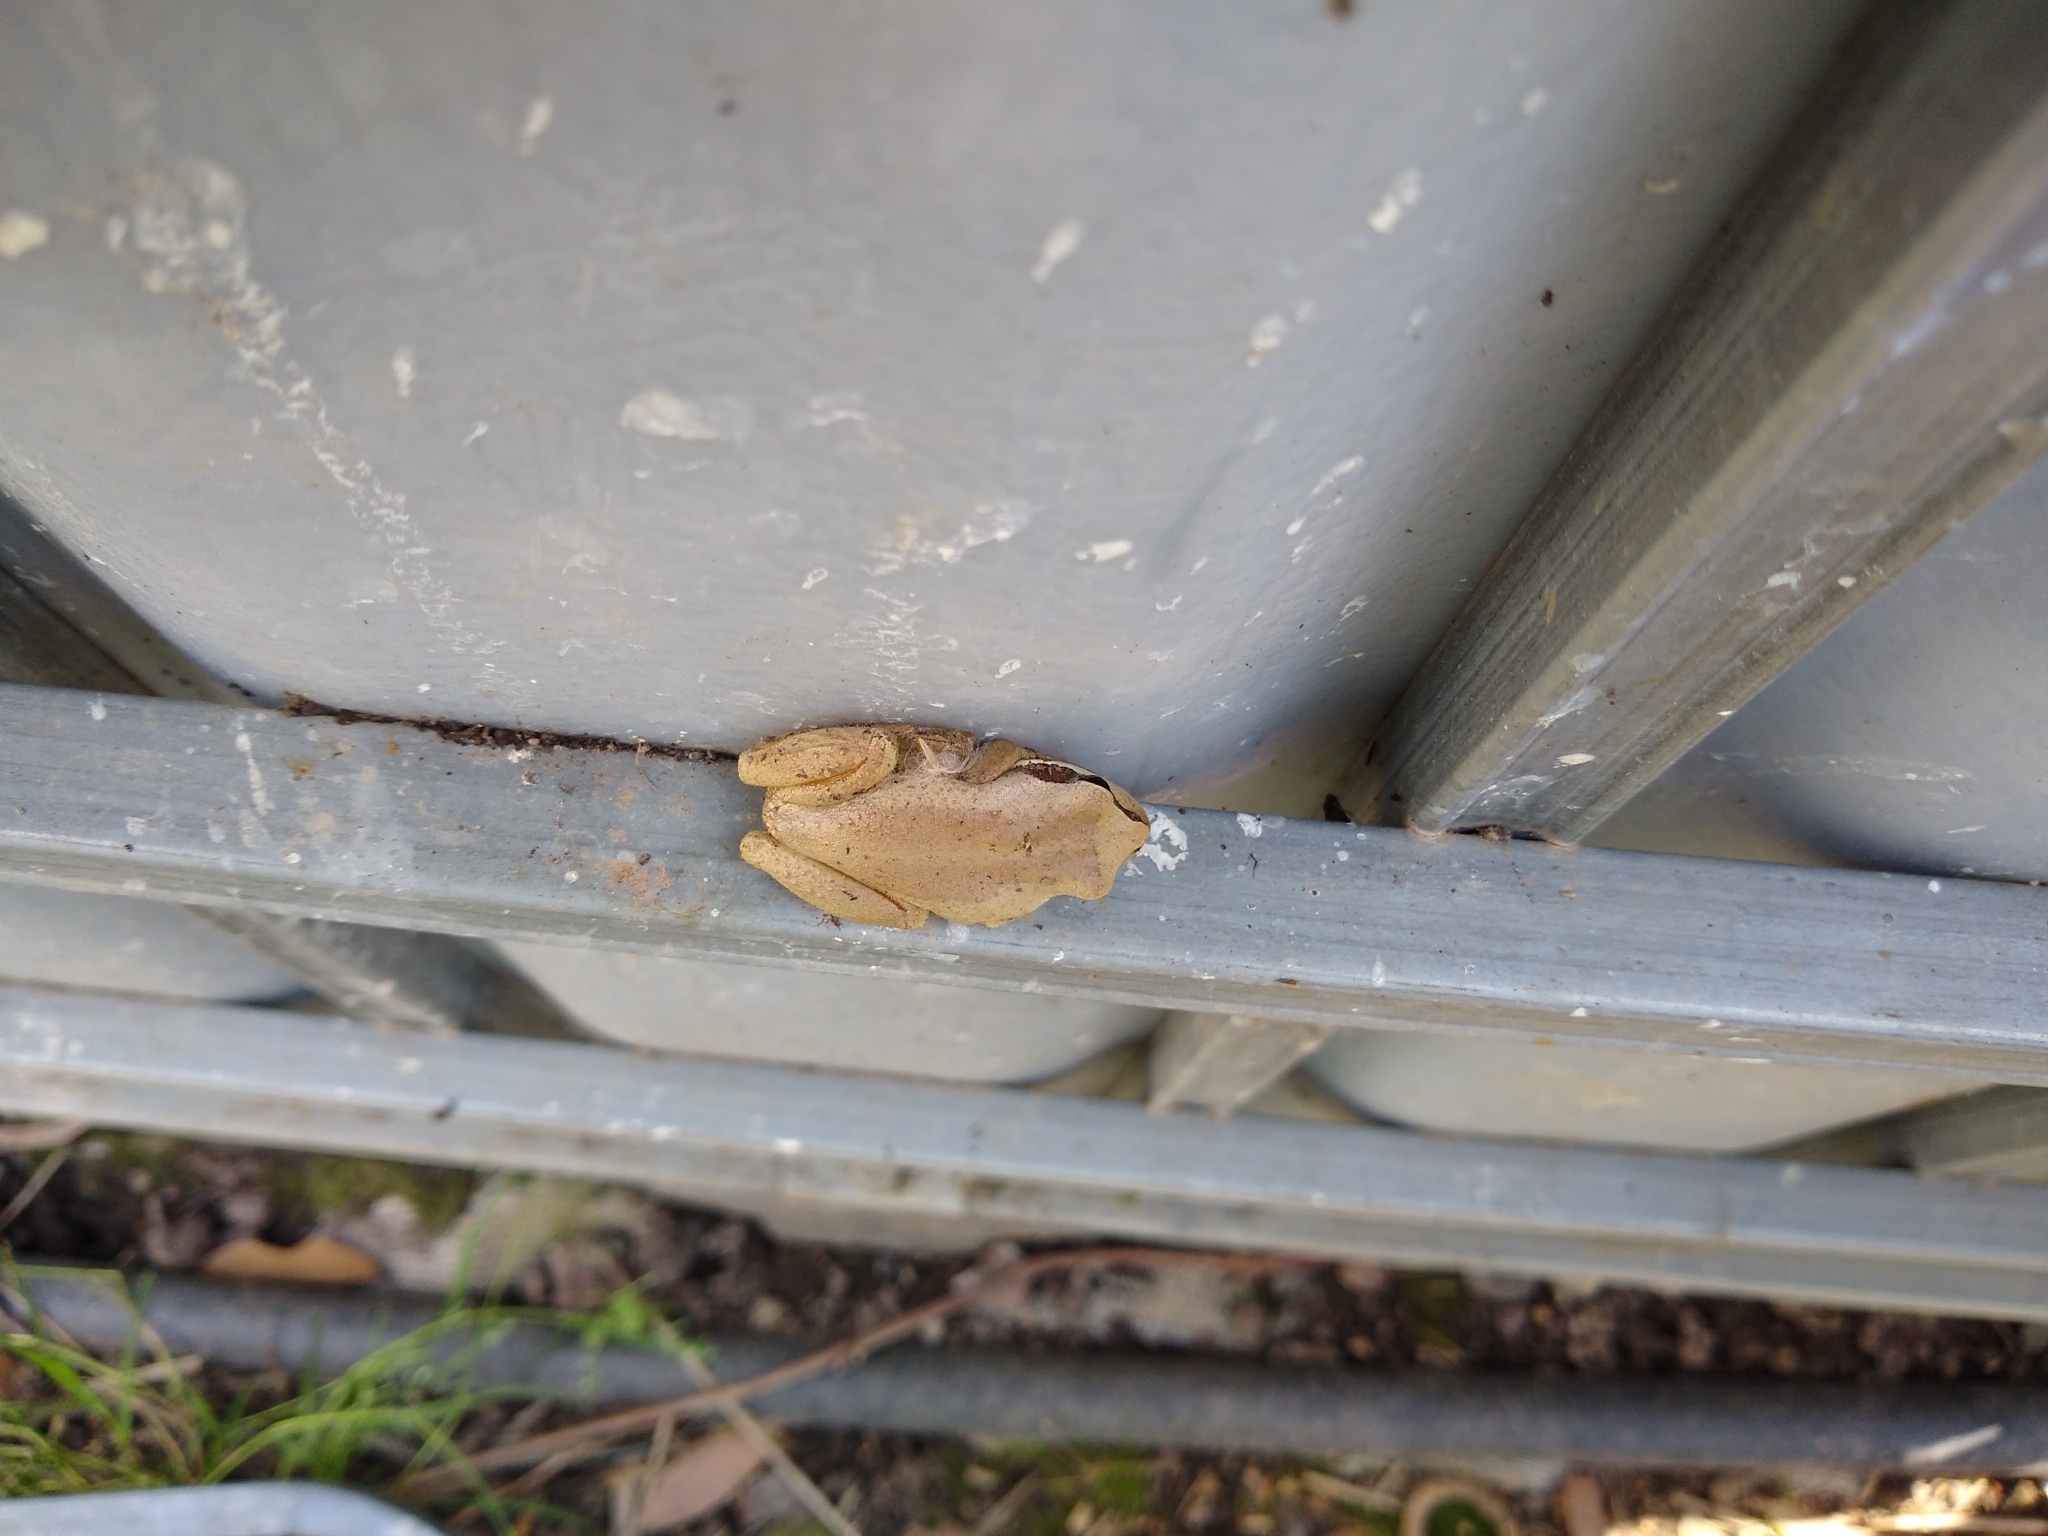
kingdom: Animalia
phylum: Chordata
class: Amphibia
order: Anura
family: Pelodryadidae
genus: Litoria
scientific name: Litoria ewingii
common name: Southern brown tree frog
